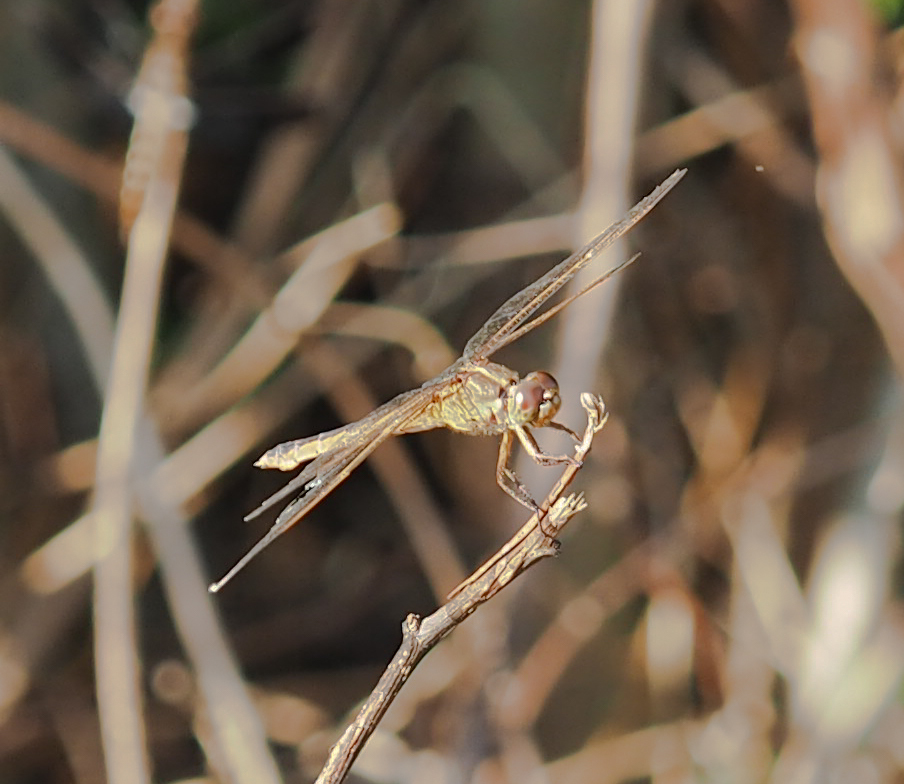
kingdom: Animalia
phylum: Arthropoda
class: Insecta
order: Odonata
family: Libellulidae
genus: Libellula
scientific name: Libellula needhami
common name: Needham's skimmer
